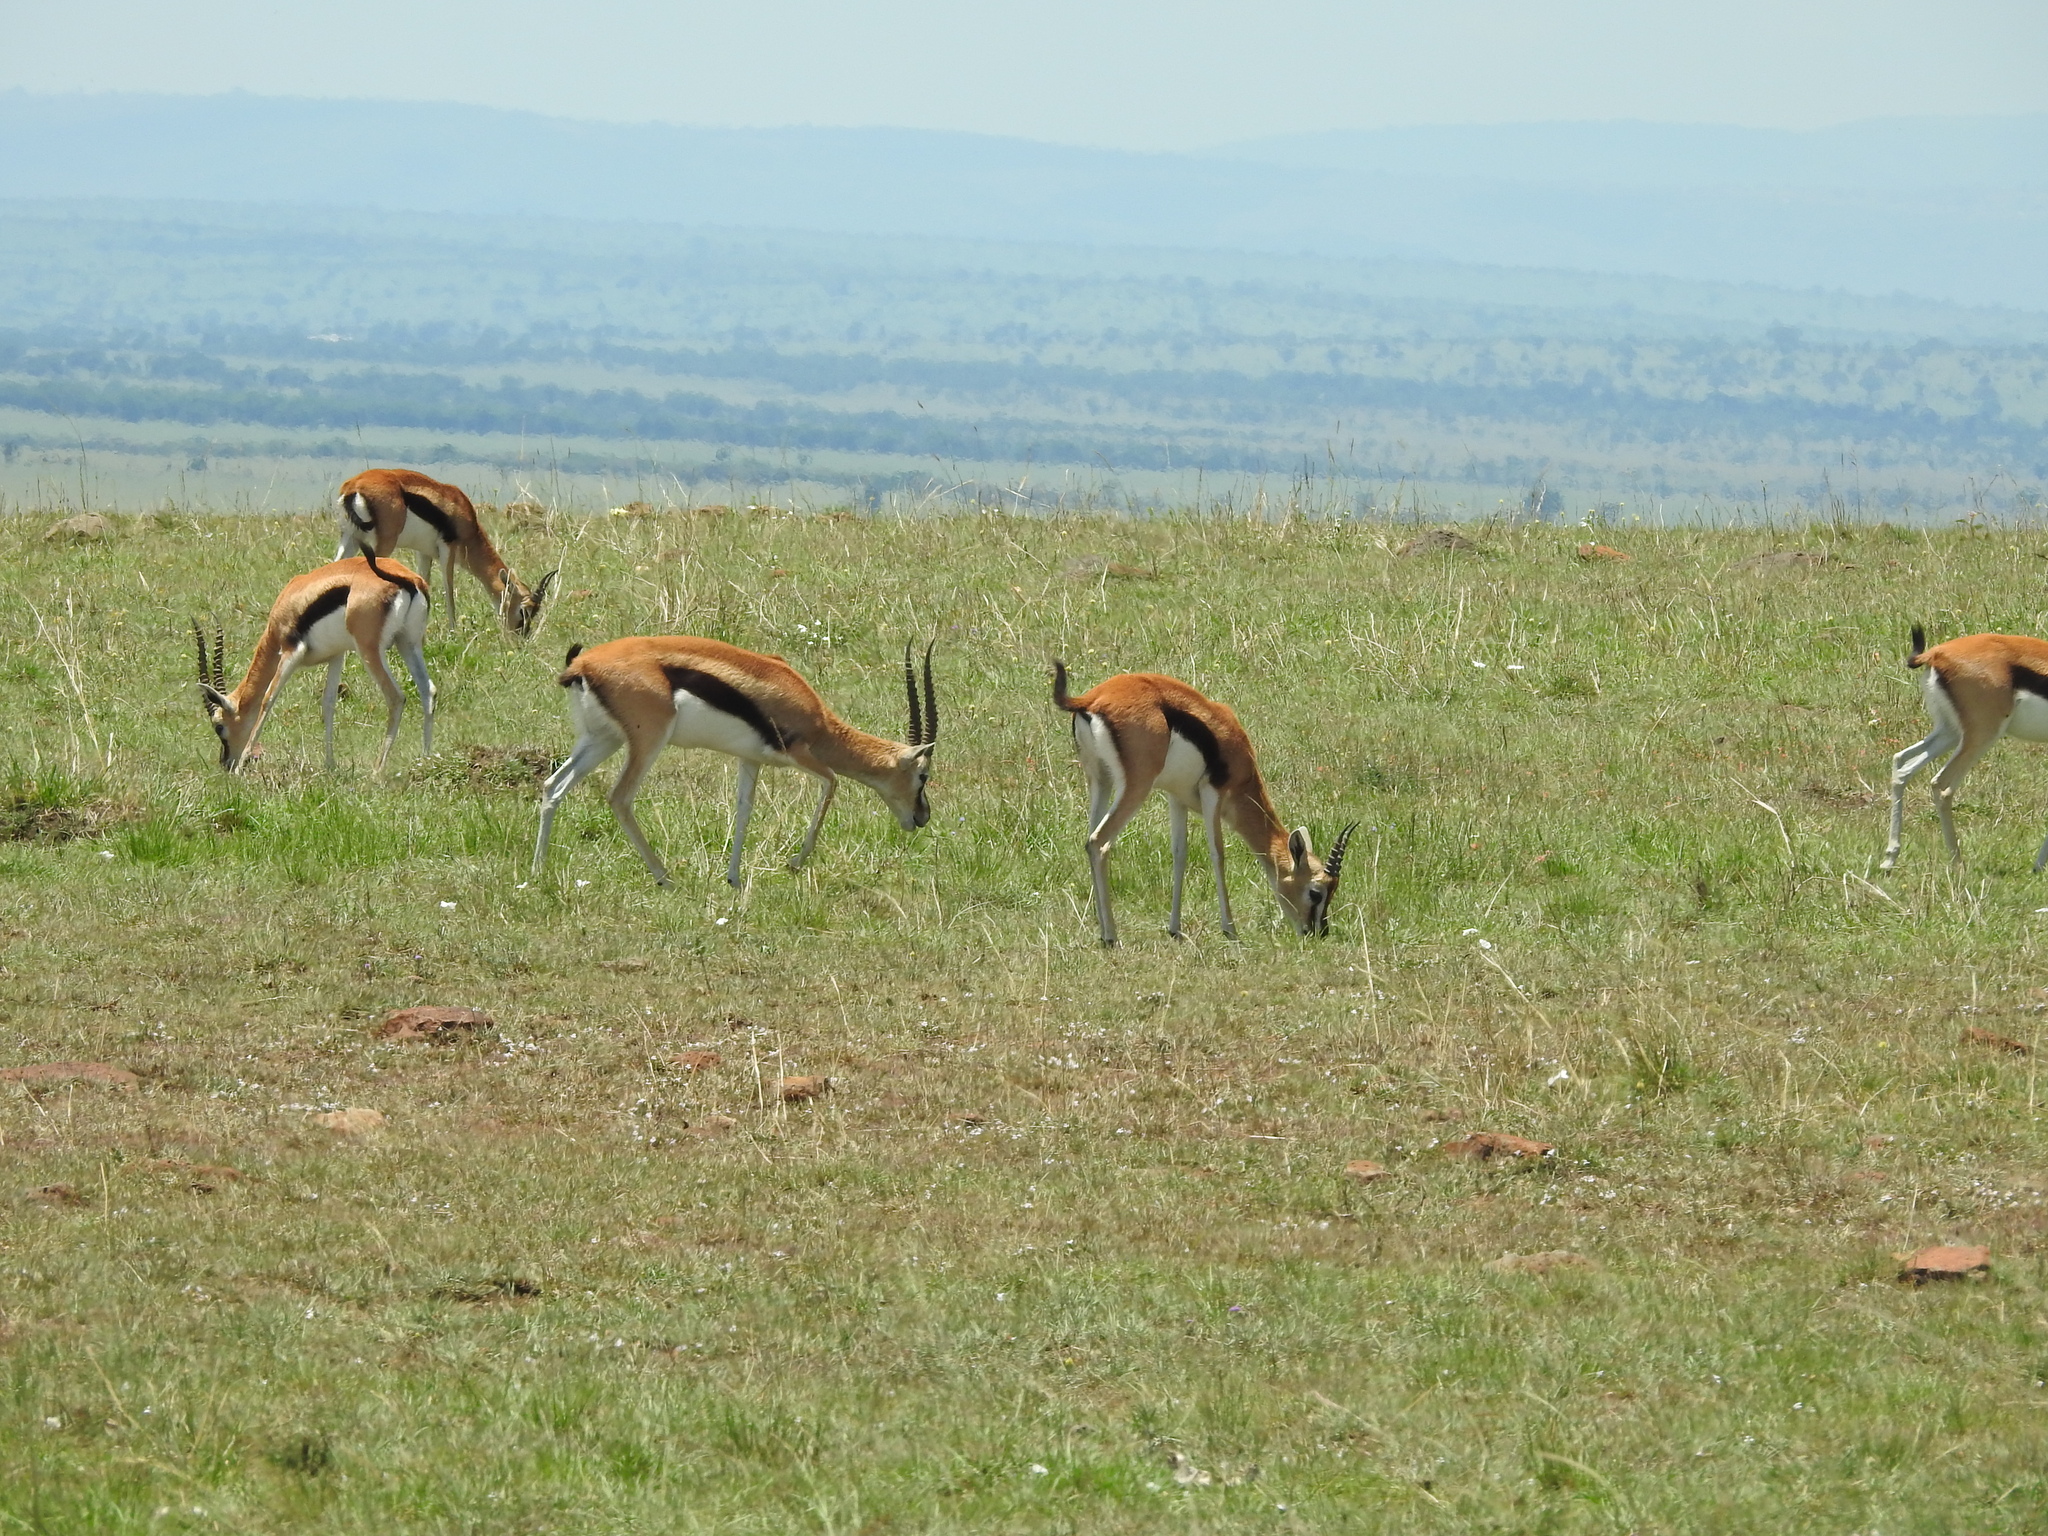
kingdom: Animalia
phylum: Chordata
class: Mammalia
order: Artiodactyla
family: Bovidae
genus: Eudorcas
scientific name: Eudorcas thomsonii
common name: Thomson's gazelle
